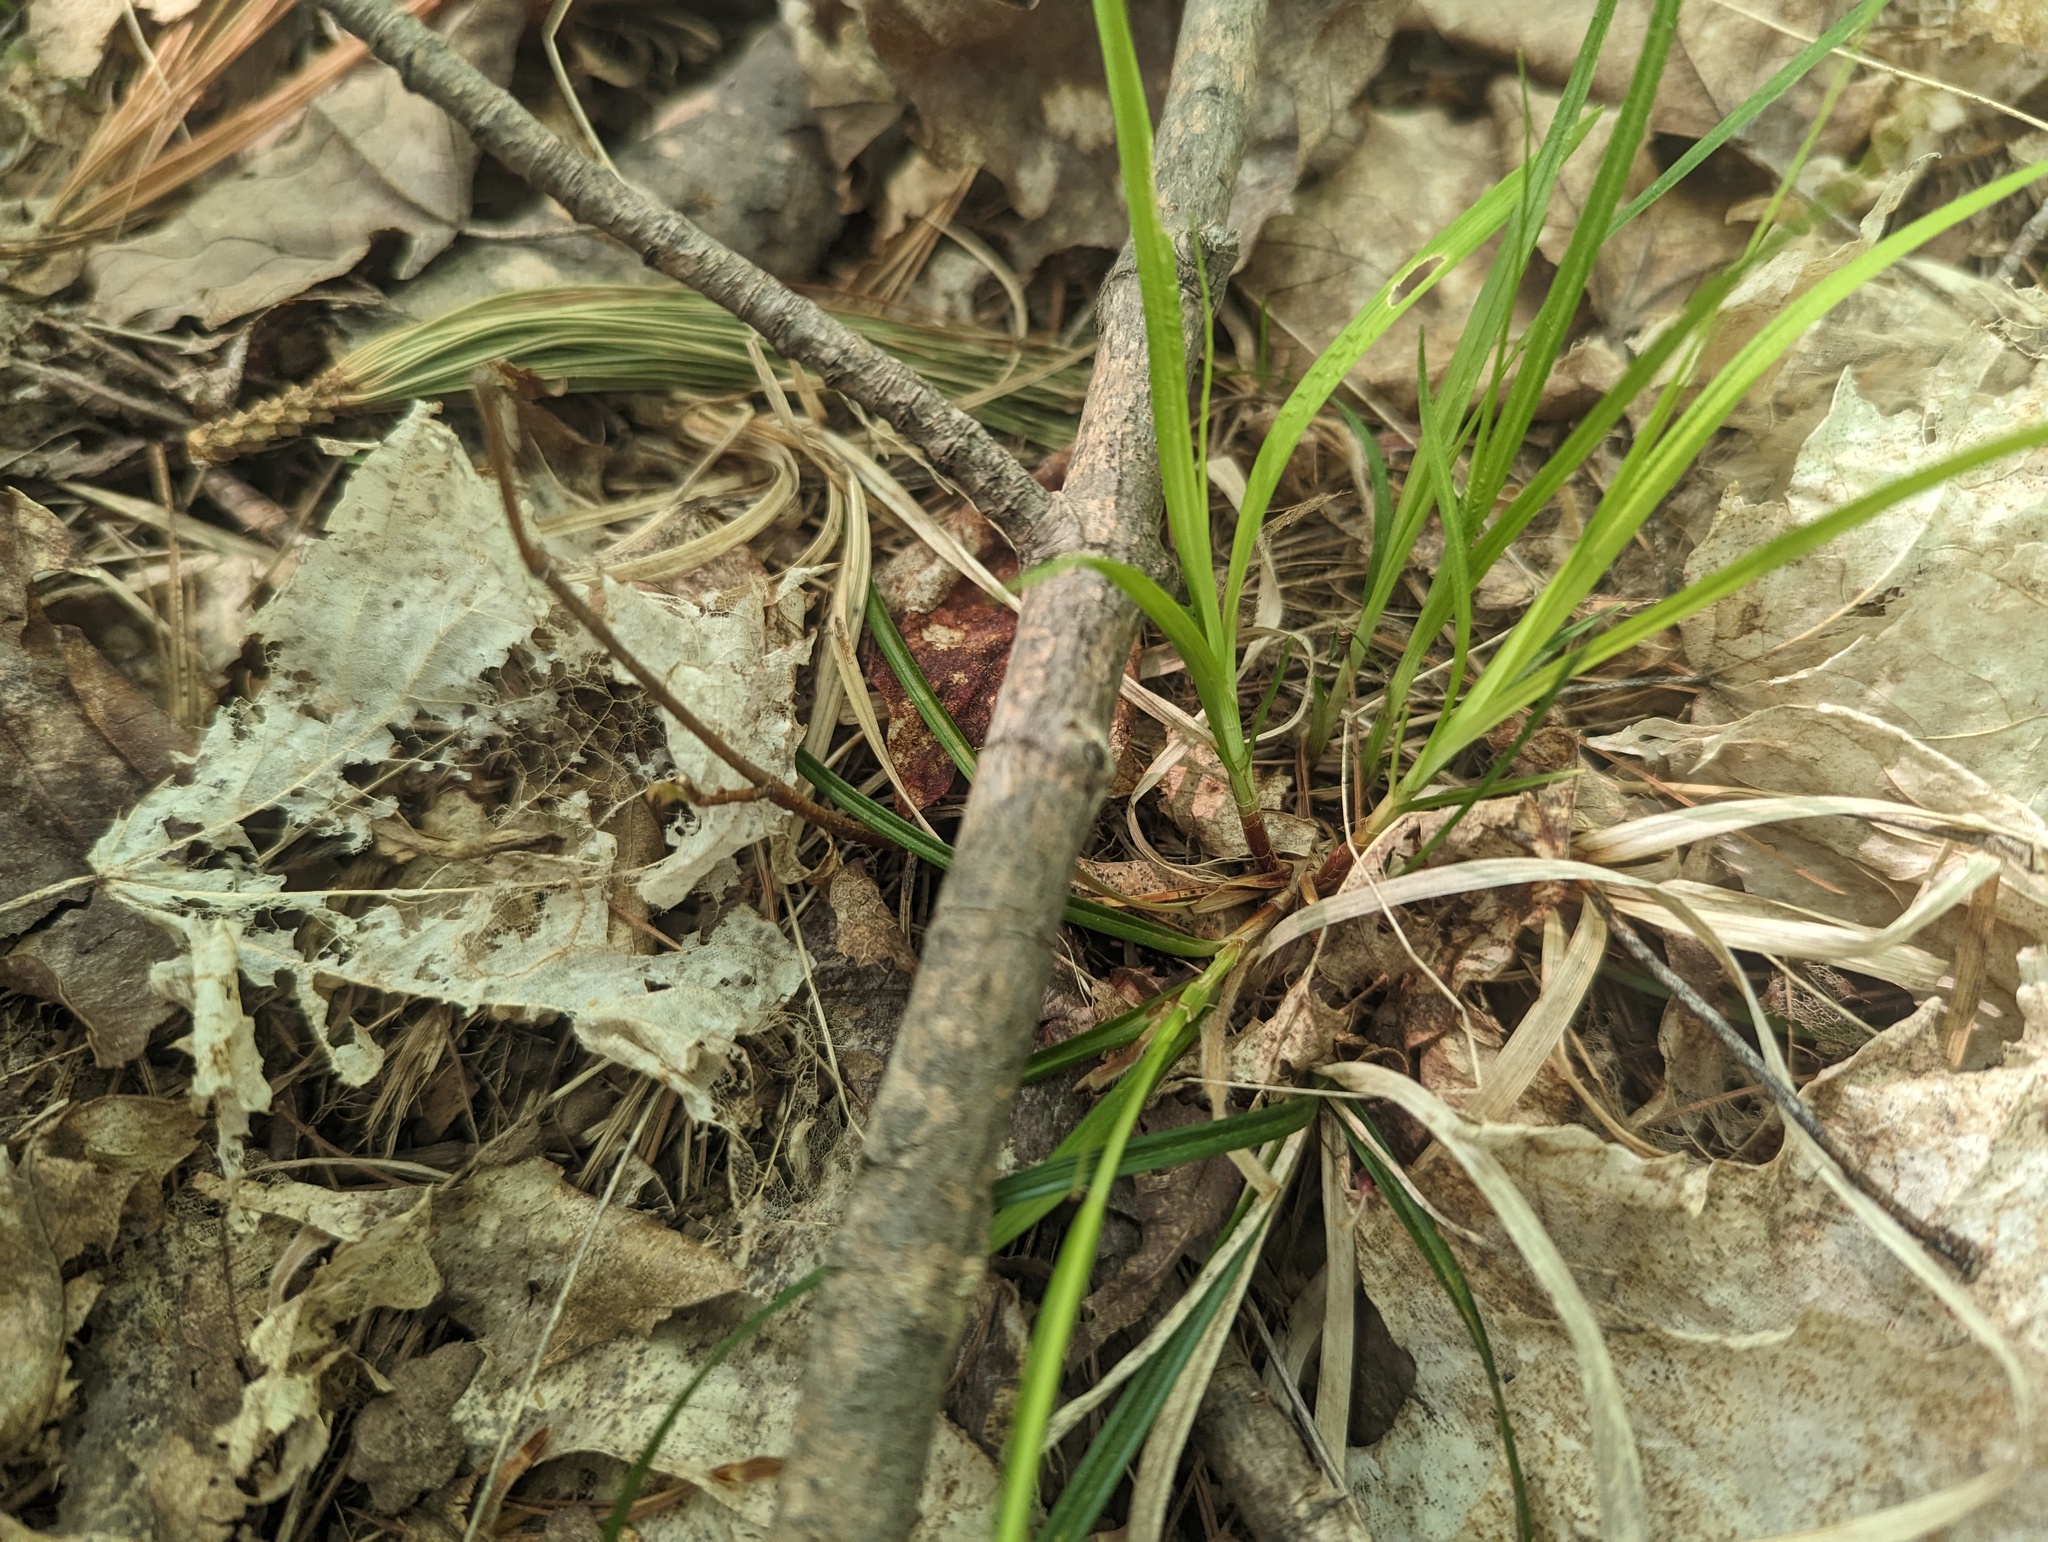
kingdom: Plantae
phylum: Tracheophyta
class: Liliopsida
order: Poales
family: Cyperaceae
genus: Carex
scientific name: Carex communis
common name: Colonial oak sedge
